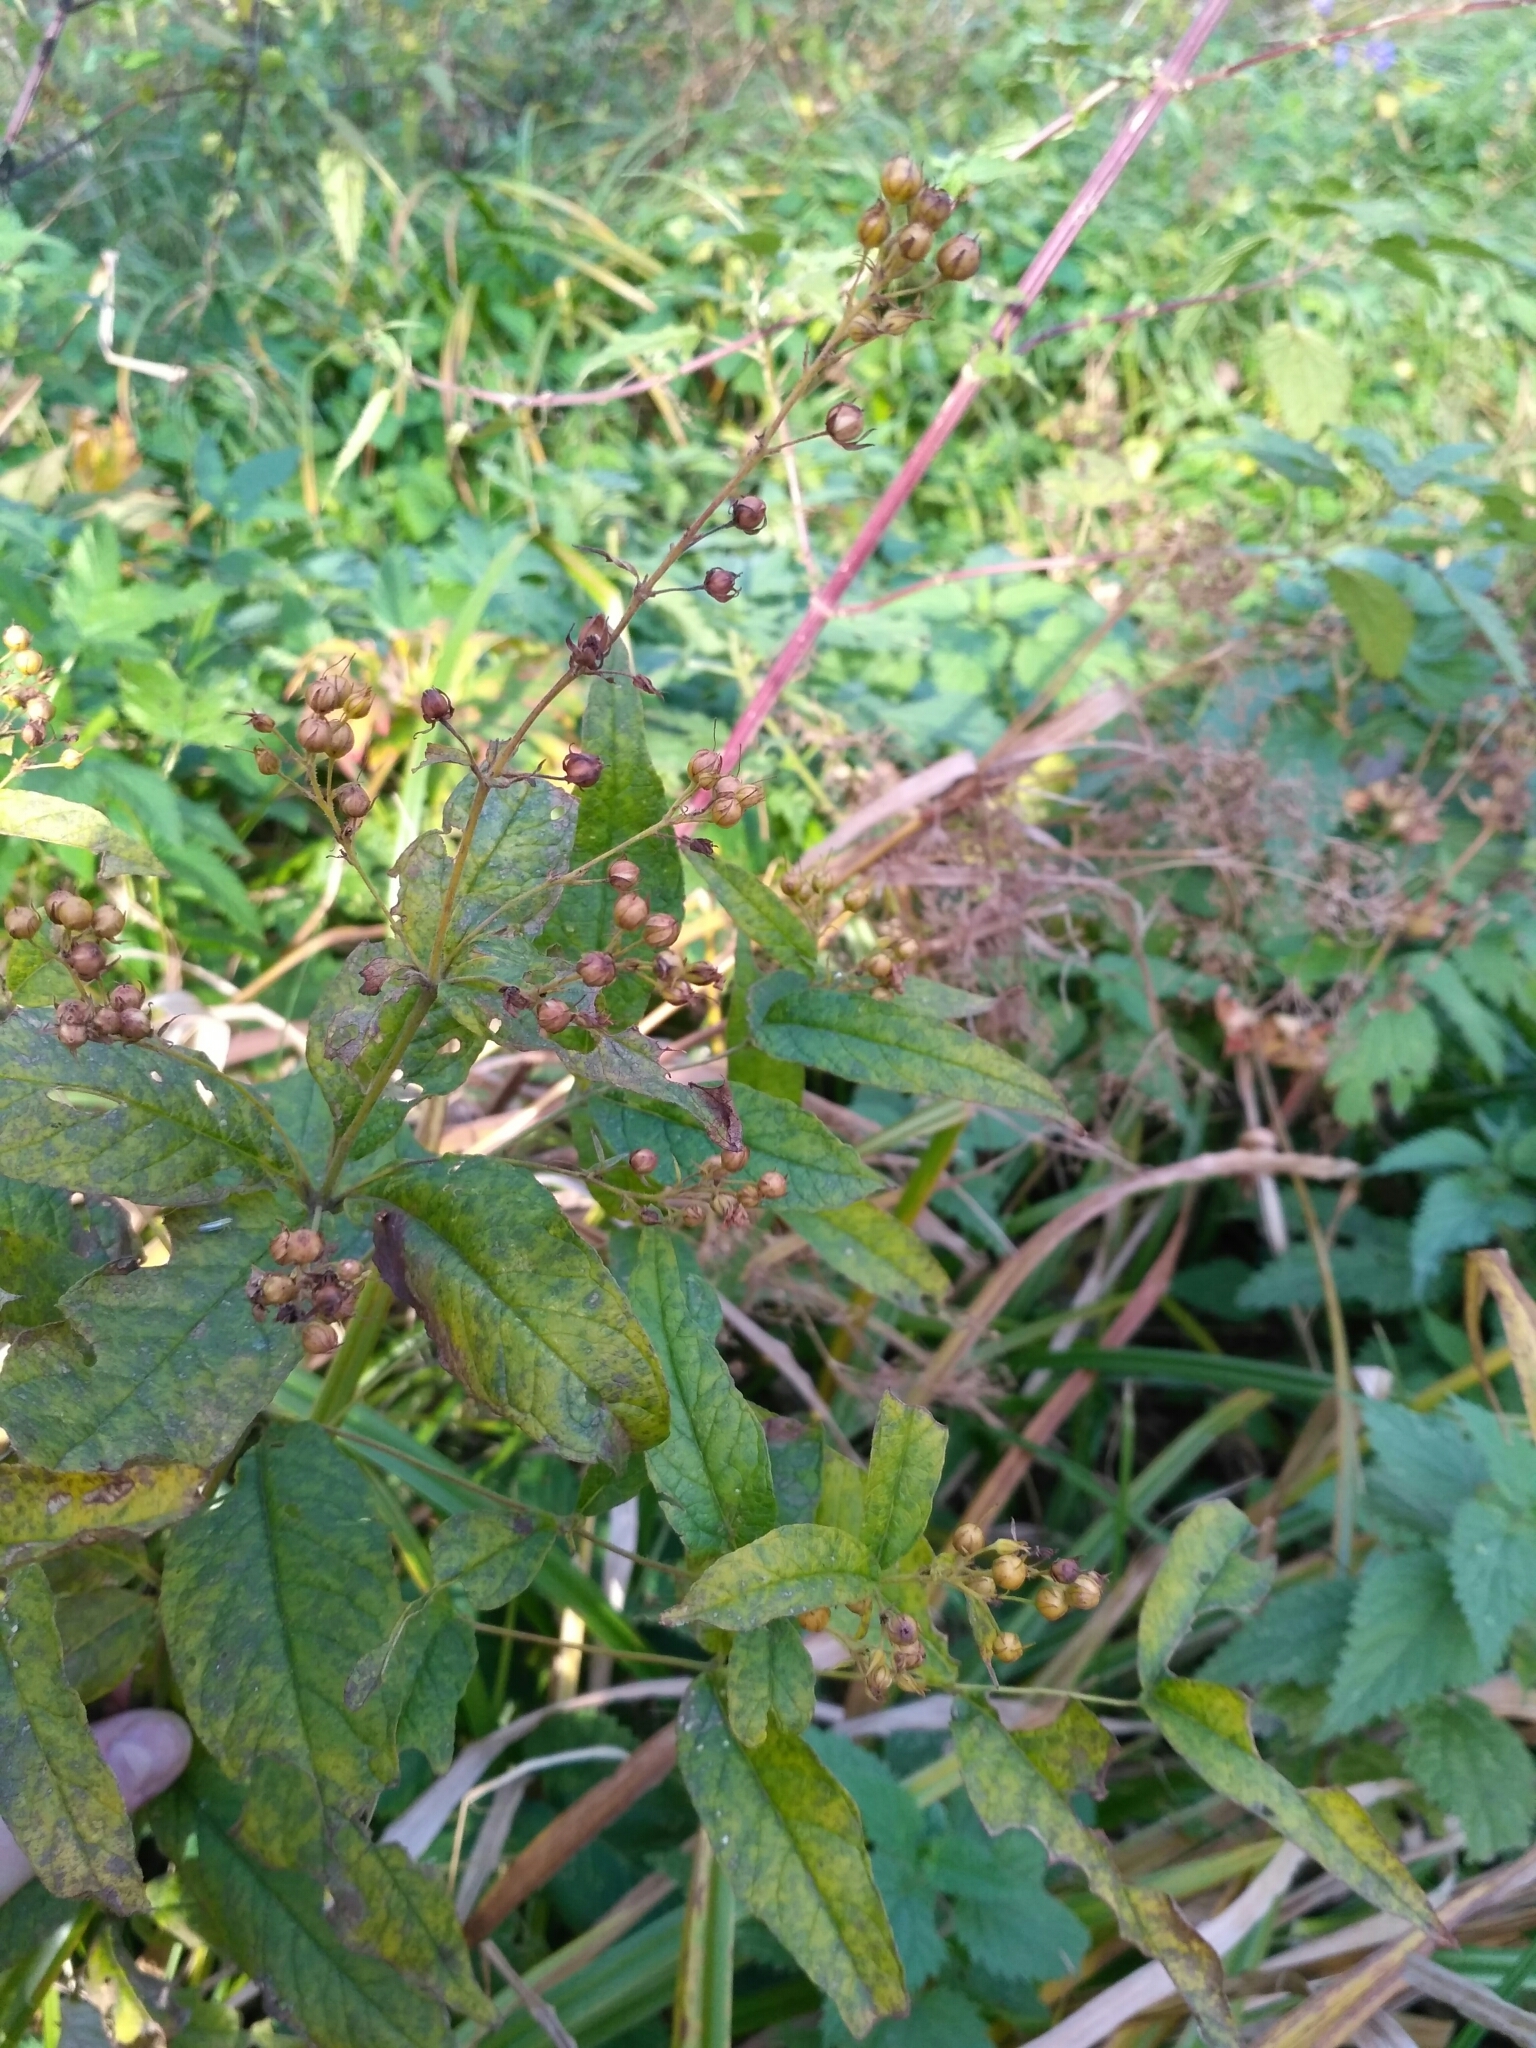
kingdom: Plantae
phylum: Tracheophyta
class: Magnoliopsida
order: Ericales
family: Primulaceae
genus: Lysimachia
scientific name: Lysimachia vulgaris
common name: Yellow loosestrife
